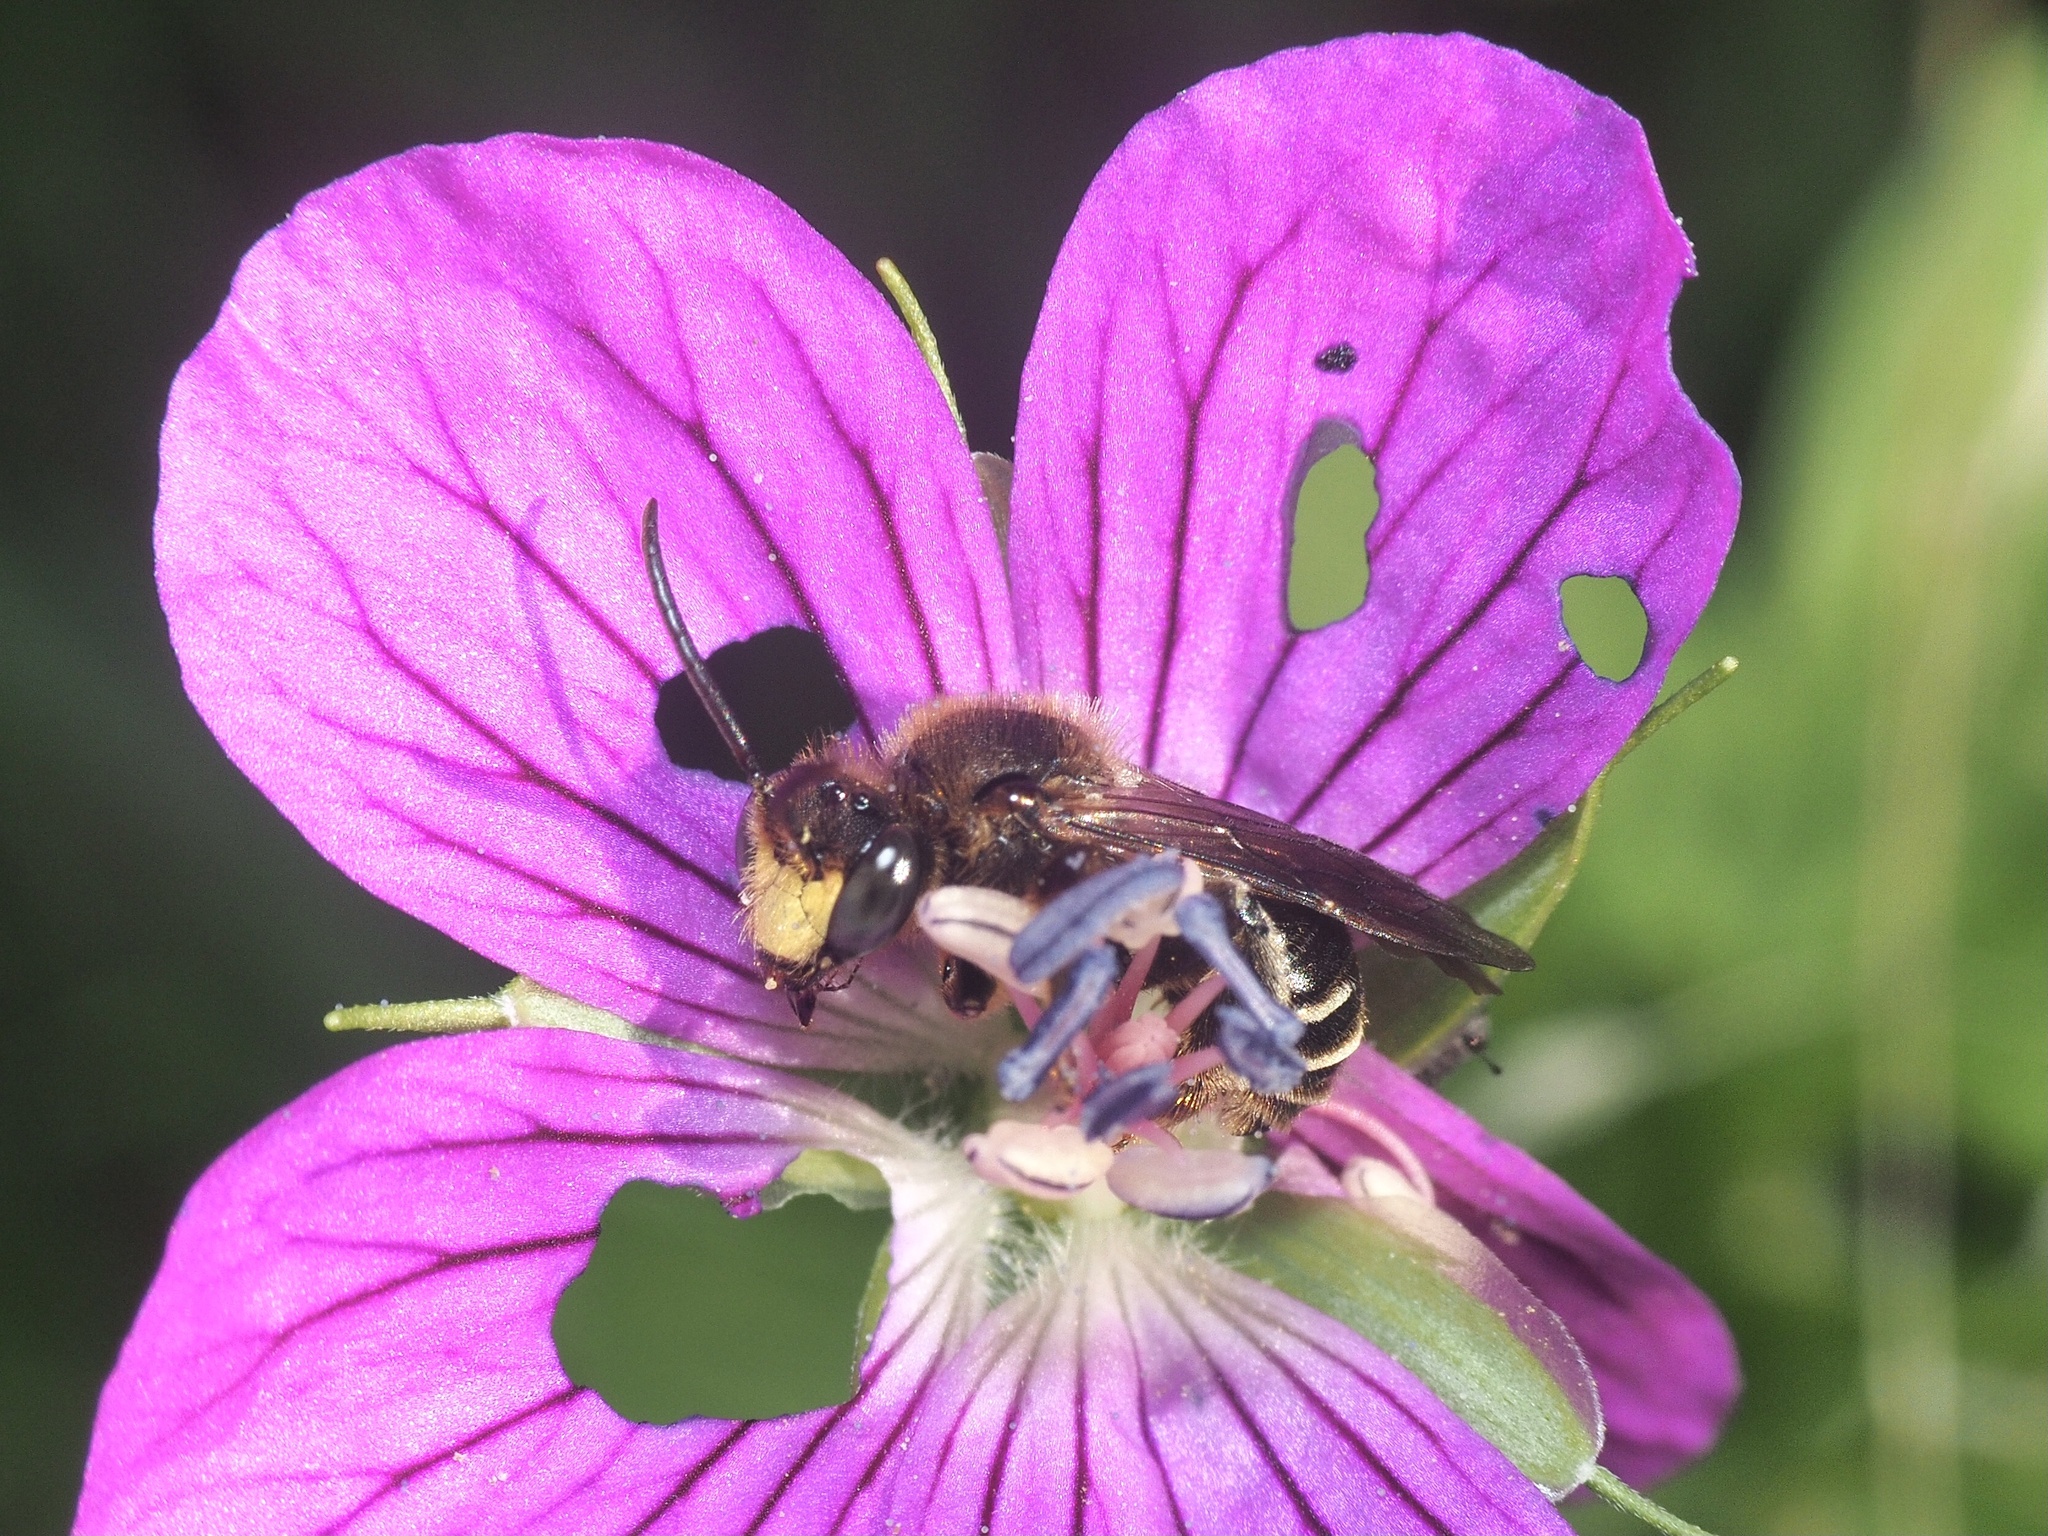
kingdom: Animalia
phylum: Arthropoda
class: Insecta
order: Hymenoptera
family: Melittidae
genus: Macropis
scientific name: Macropis europaea
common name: Yellow loosestrife bee
